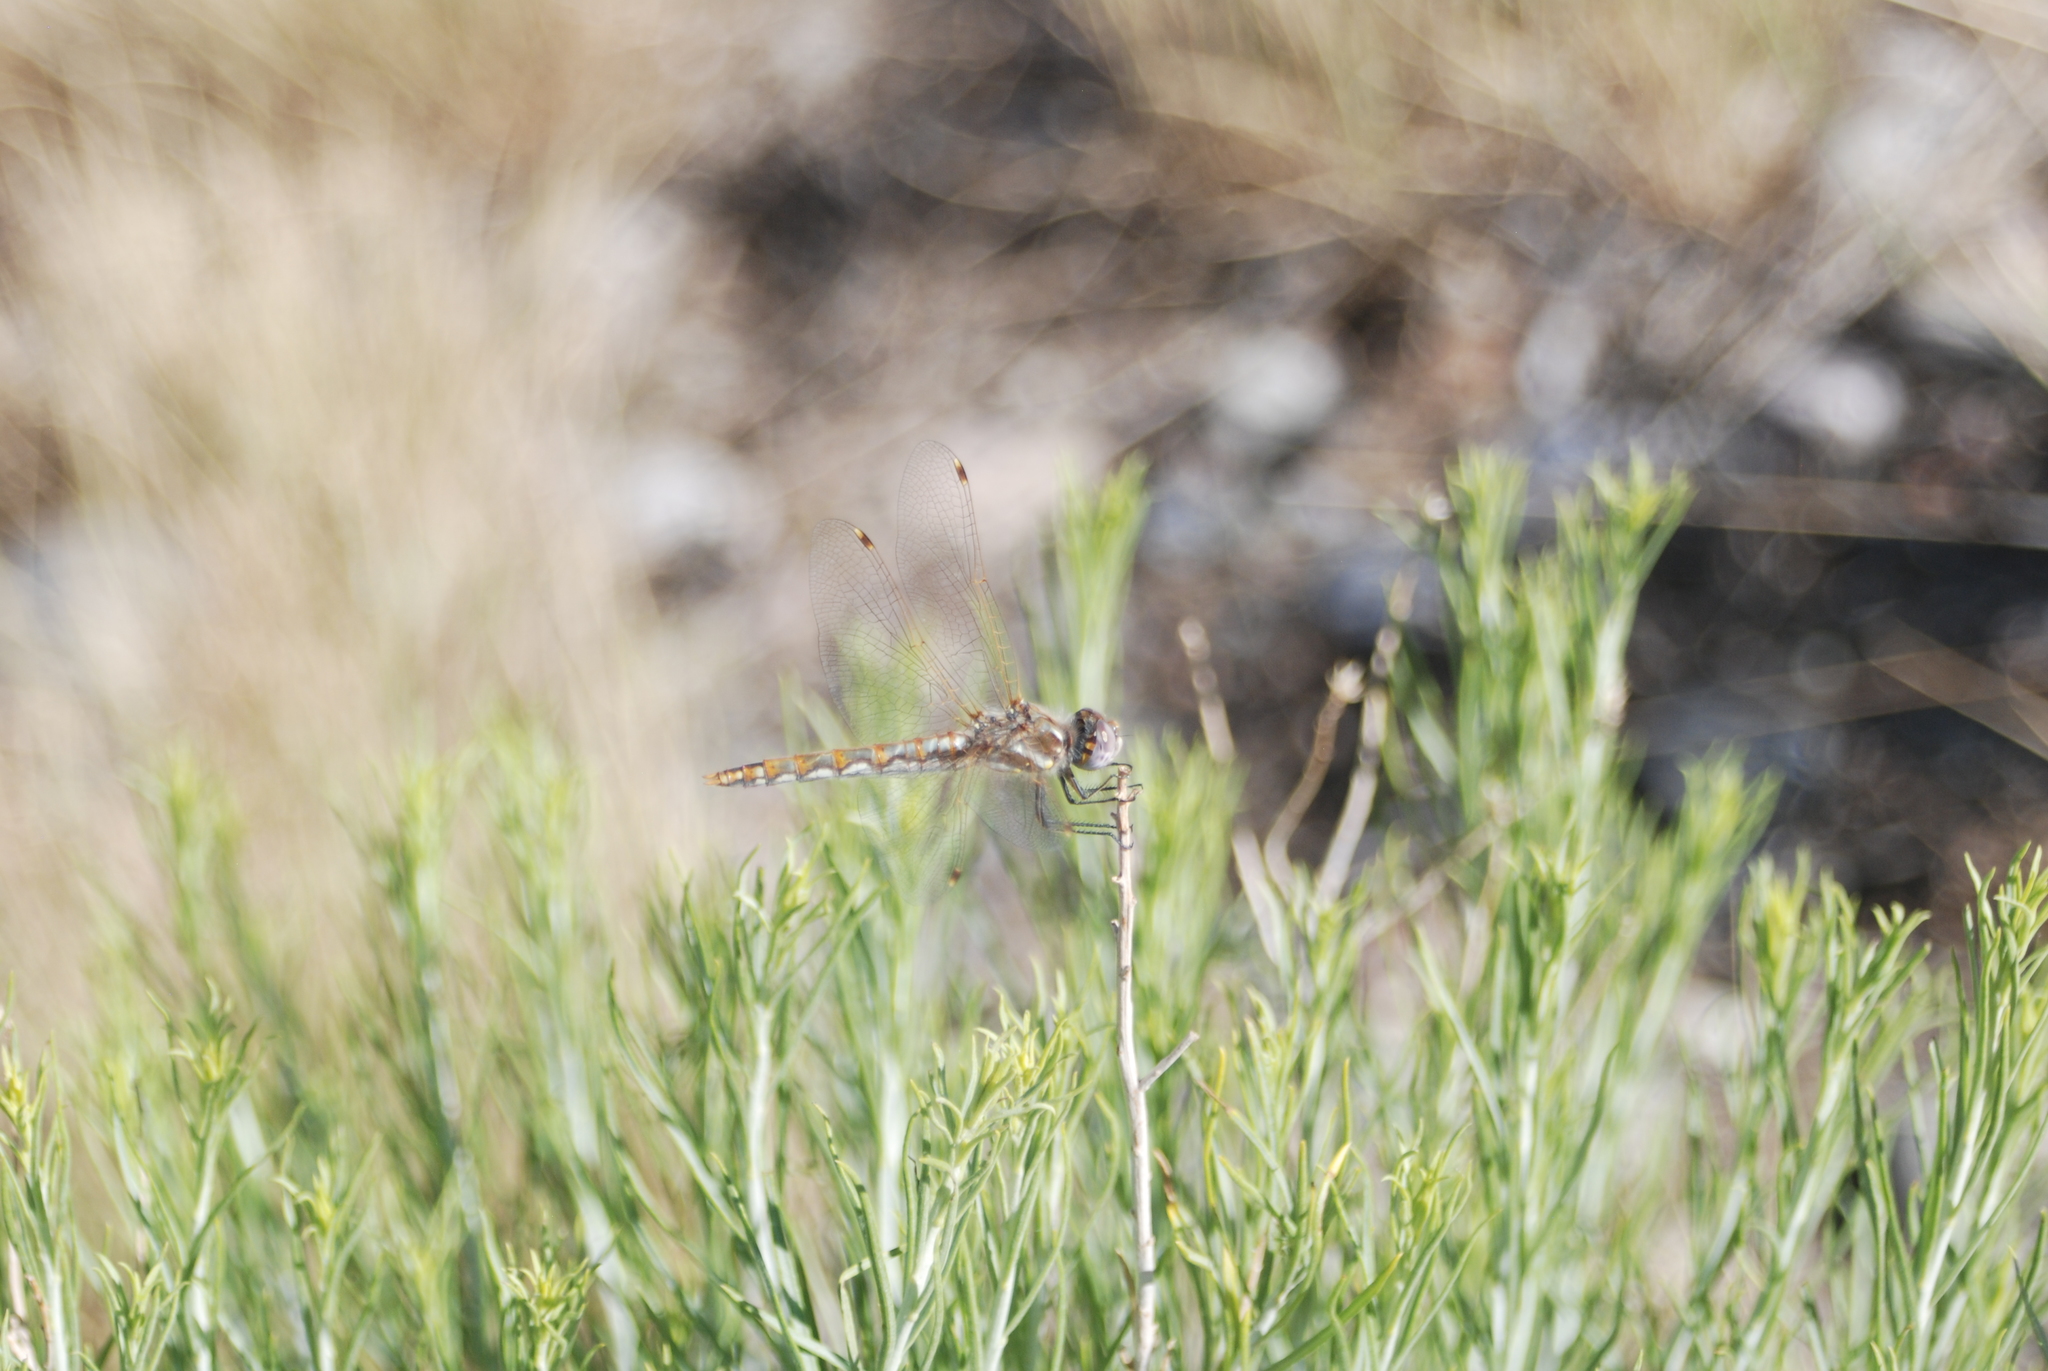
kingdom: Animalia
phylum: Arthropoda
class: Insecta
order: Odonata
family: Libellulidae
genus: Sympetrum
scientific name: Sympetrum corruptum
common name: Variegated meadowhawk
